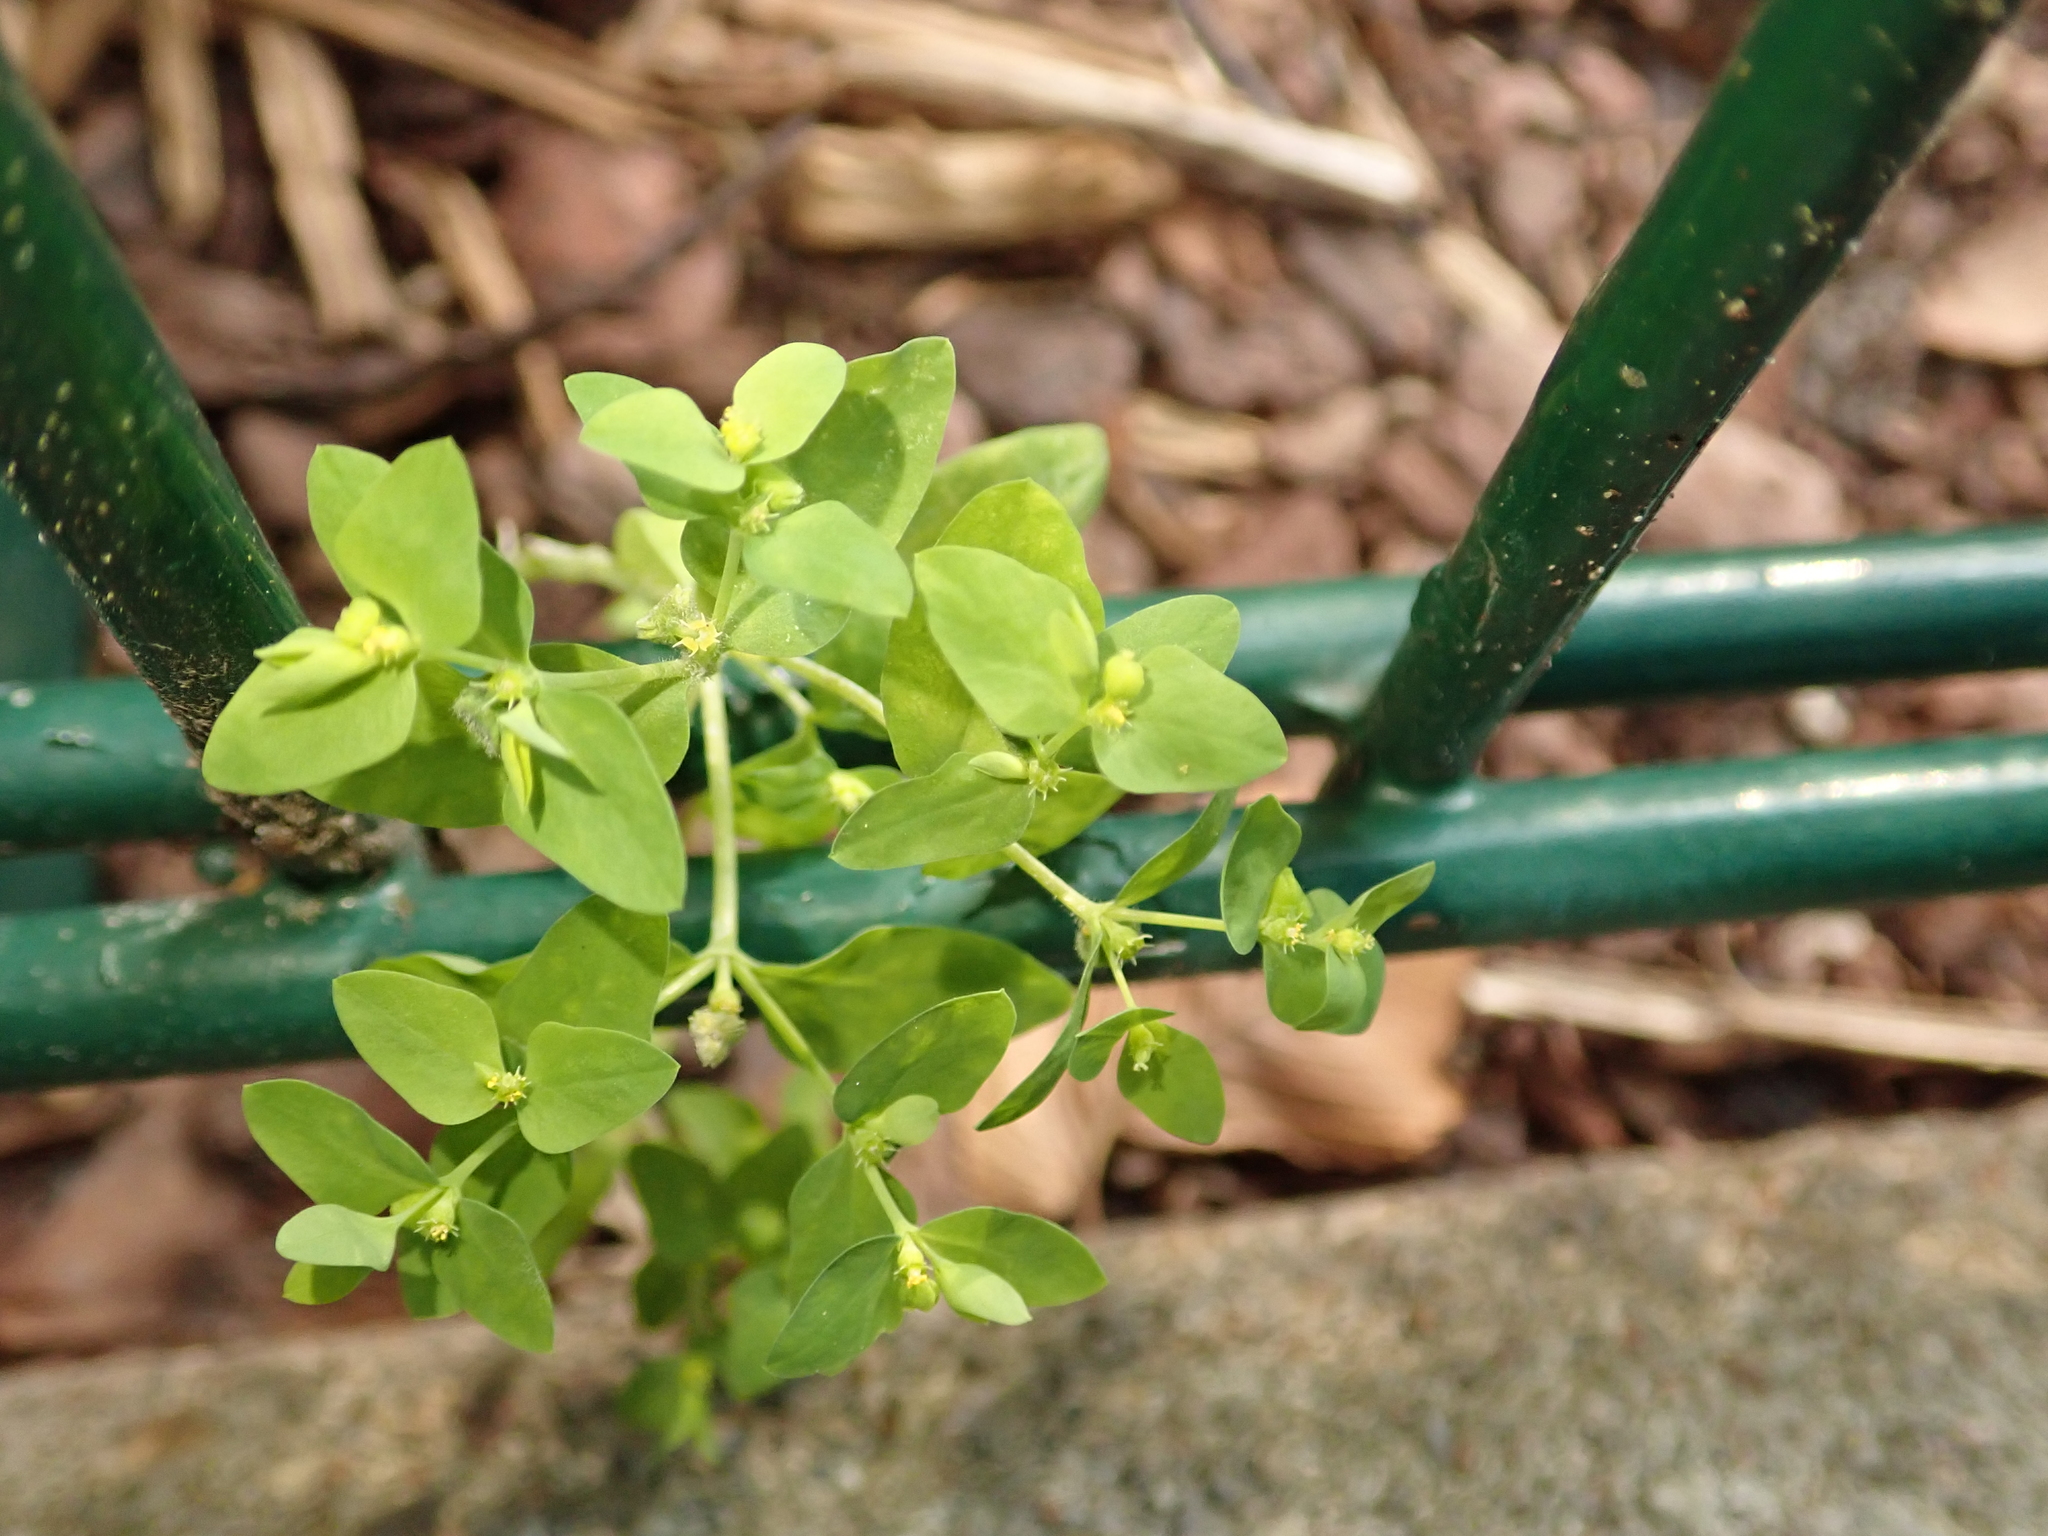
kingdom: Plantae
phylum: Tracheophyta
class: Magnoliopsida
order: Malpighiales
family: Euphorbiaceae
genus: Euphorbia
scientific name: Euphorbia peplus
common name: Petty spurge
